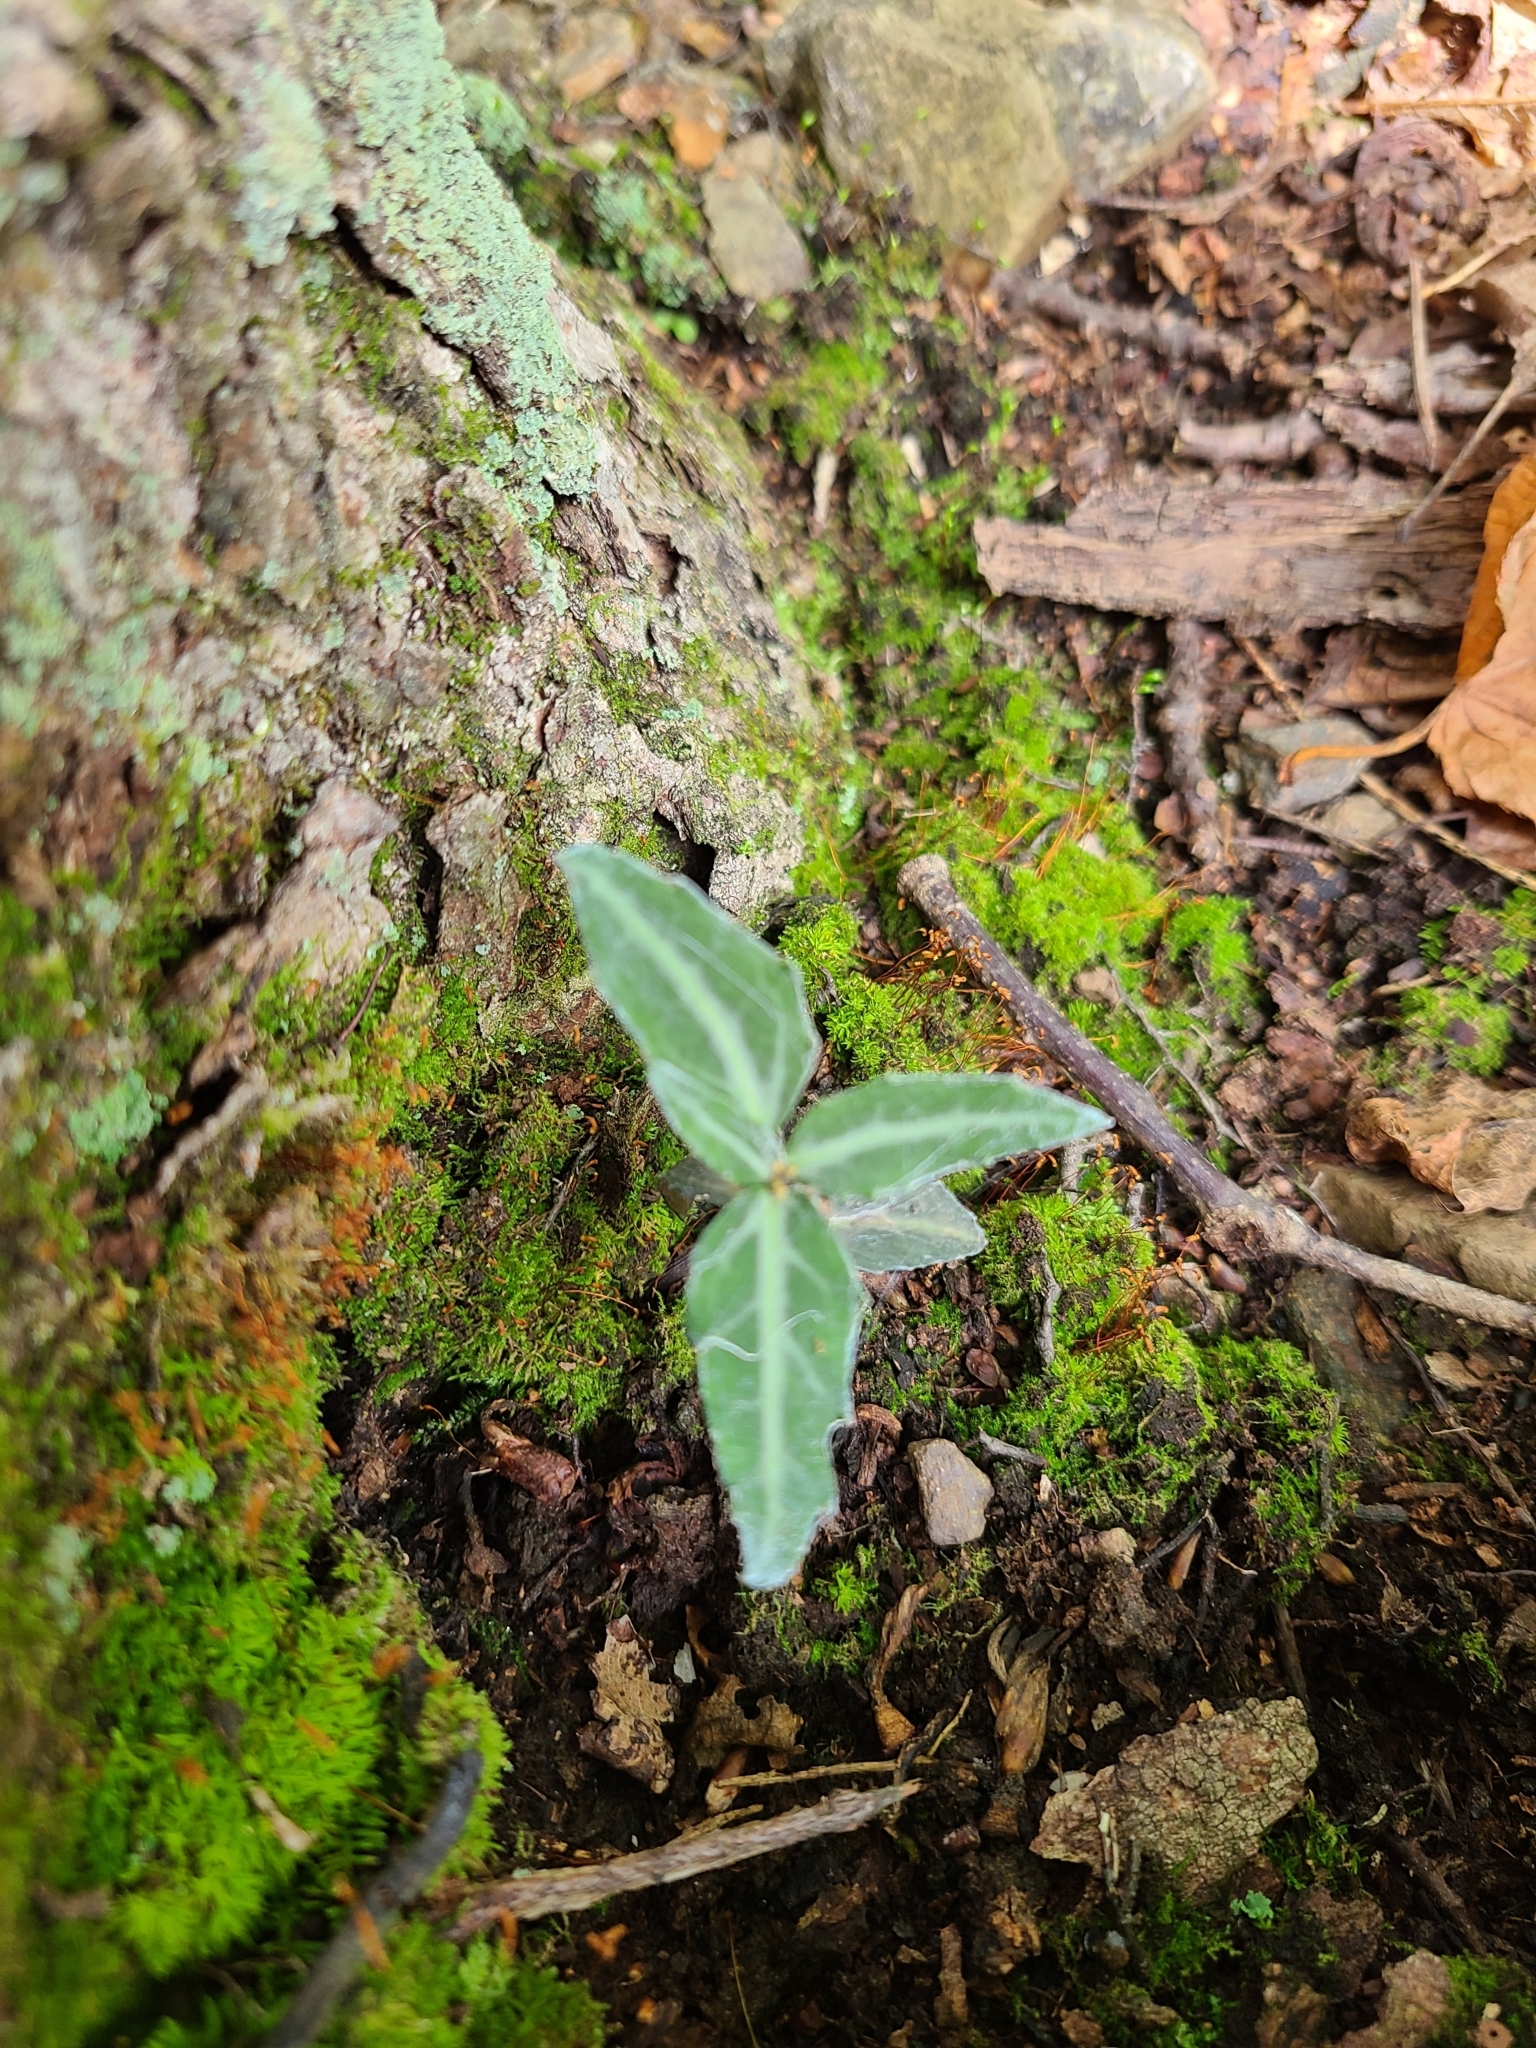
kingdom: Plantae
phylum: Tracheophyta
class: Magnoliopsida
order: Ericales
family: Ericaceae
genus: Chimaphila
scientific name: Chimaphila maculata
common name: Spotted pipsissewa
